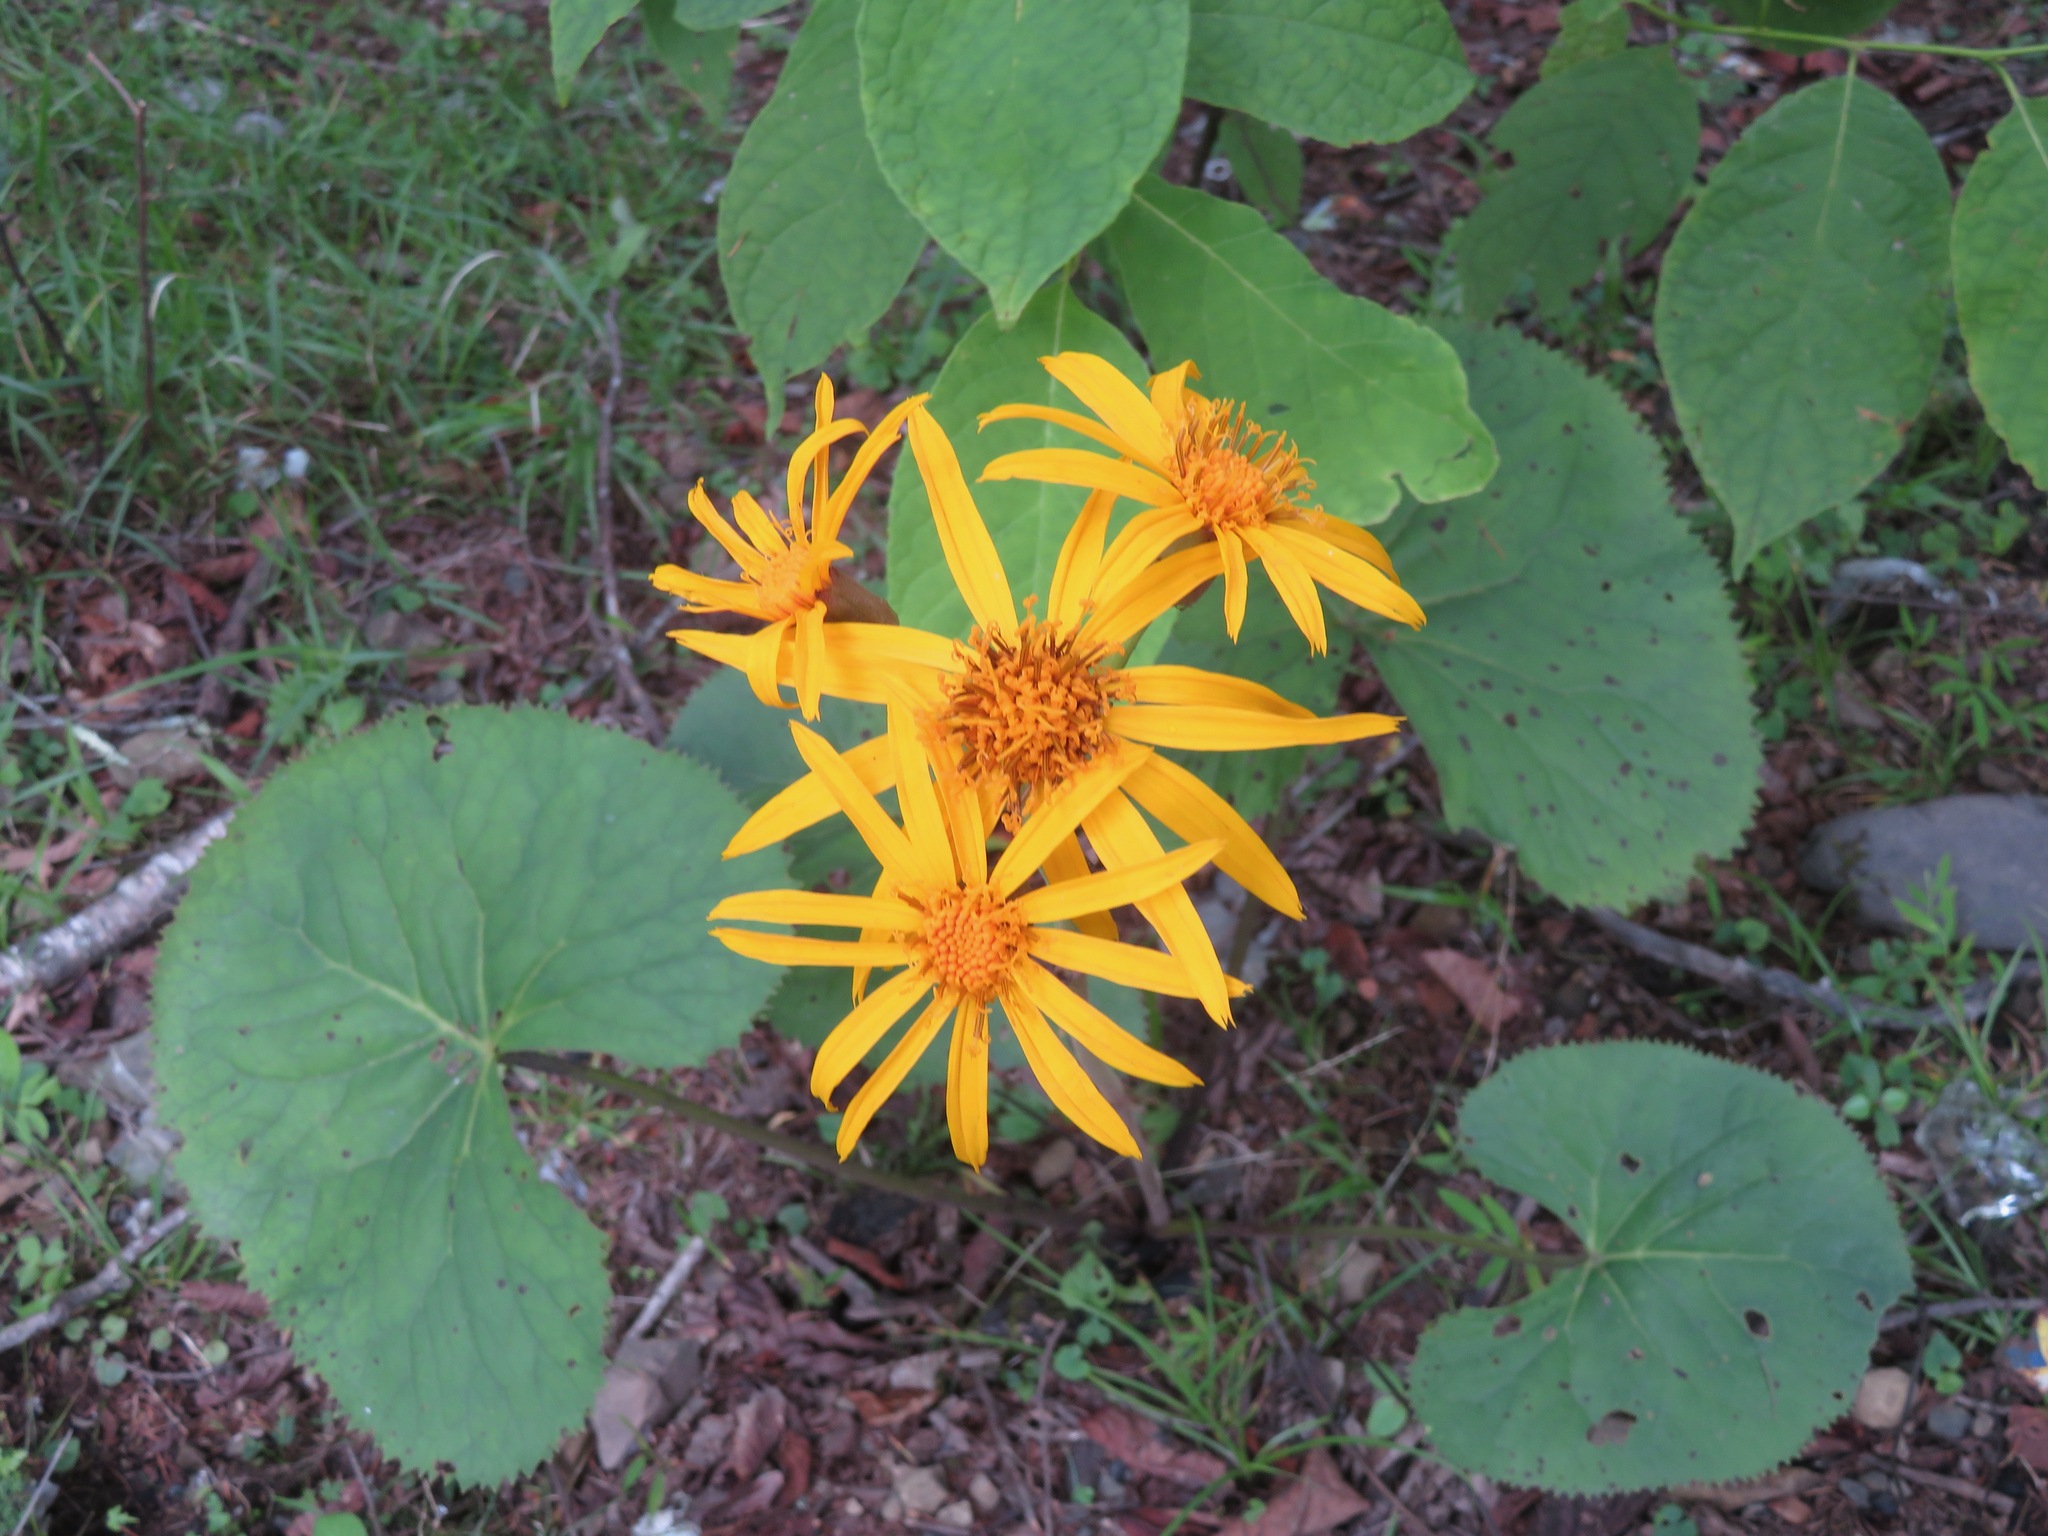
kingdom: Plantae
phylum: Tracheophyta
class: Magnoliopsida
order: Asterales
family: Asteraceae
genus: Ligularia
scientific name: Ligularia dentata
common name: Leopardplant
